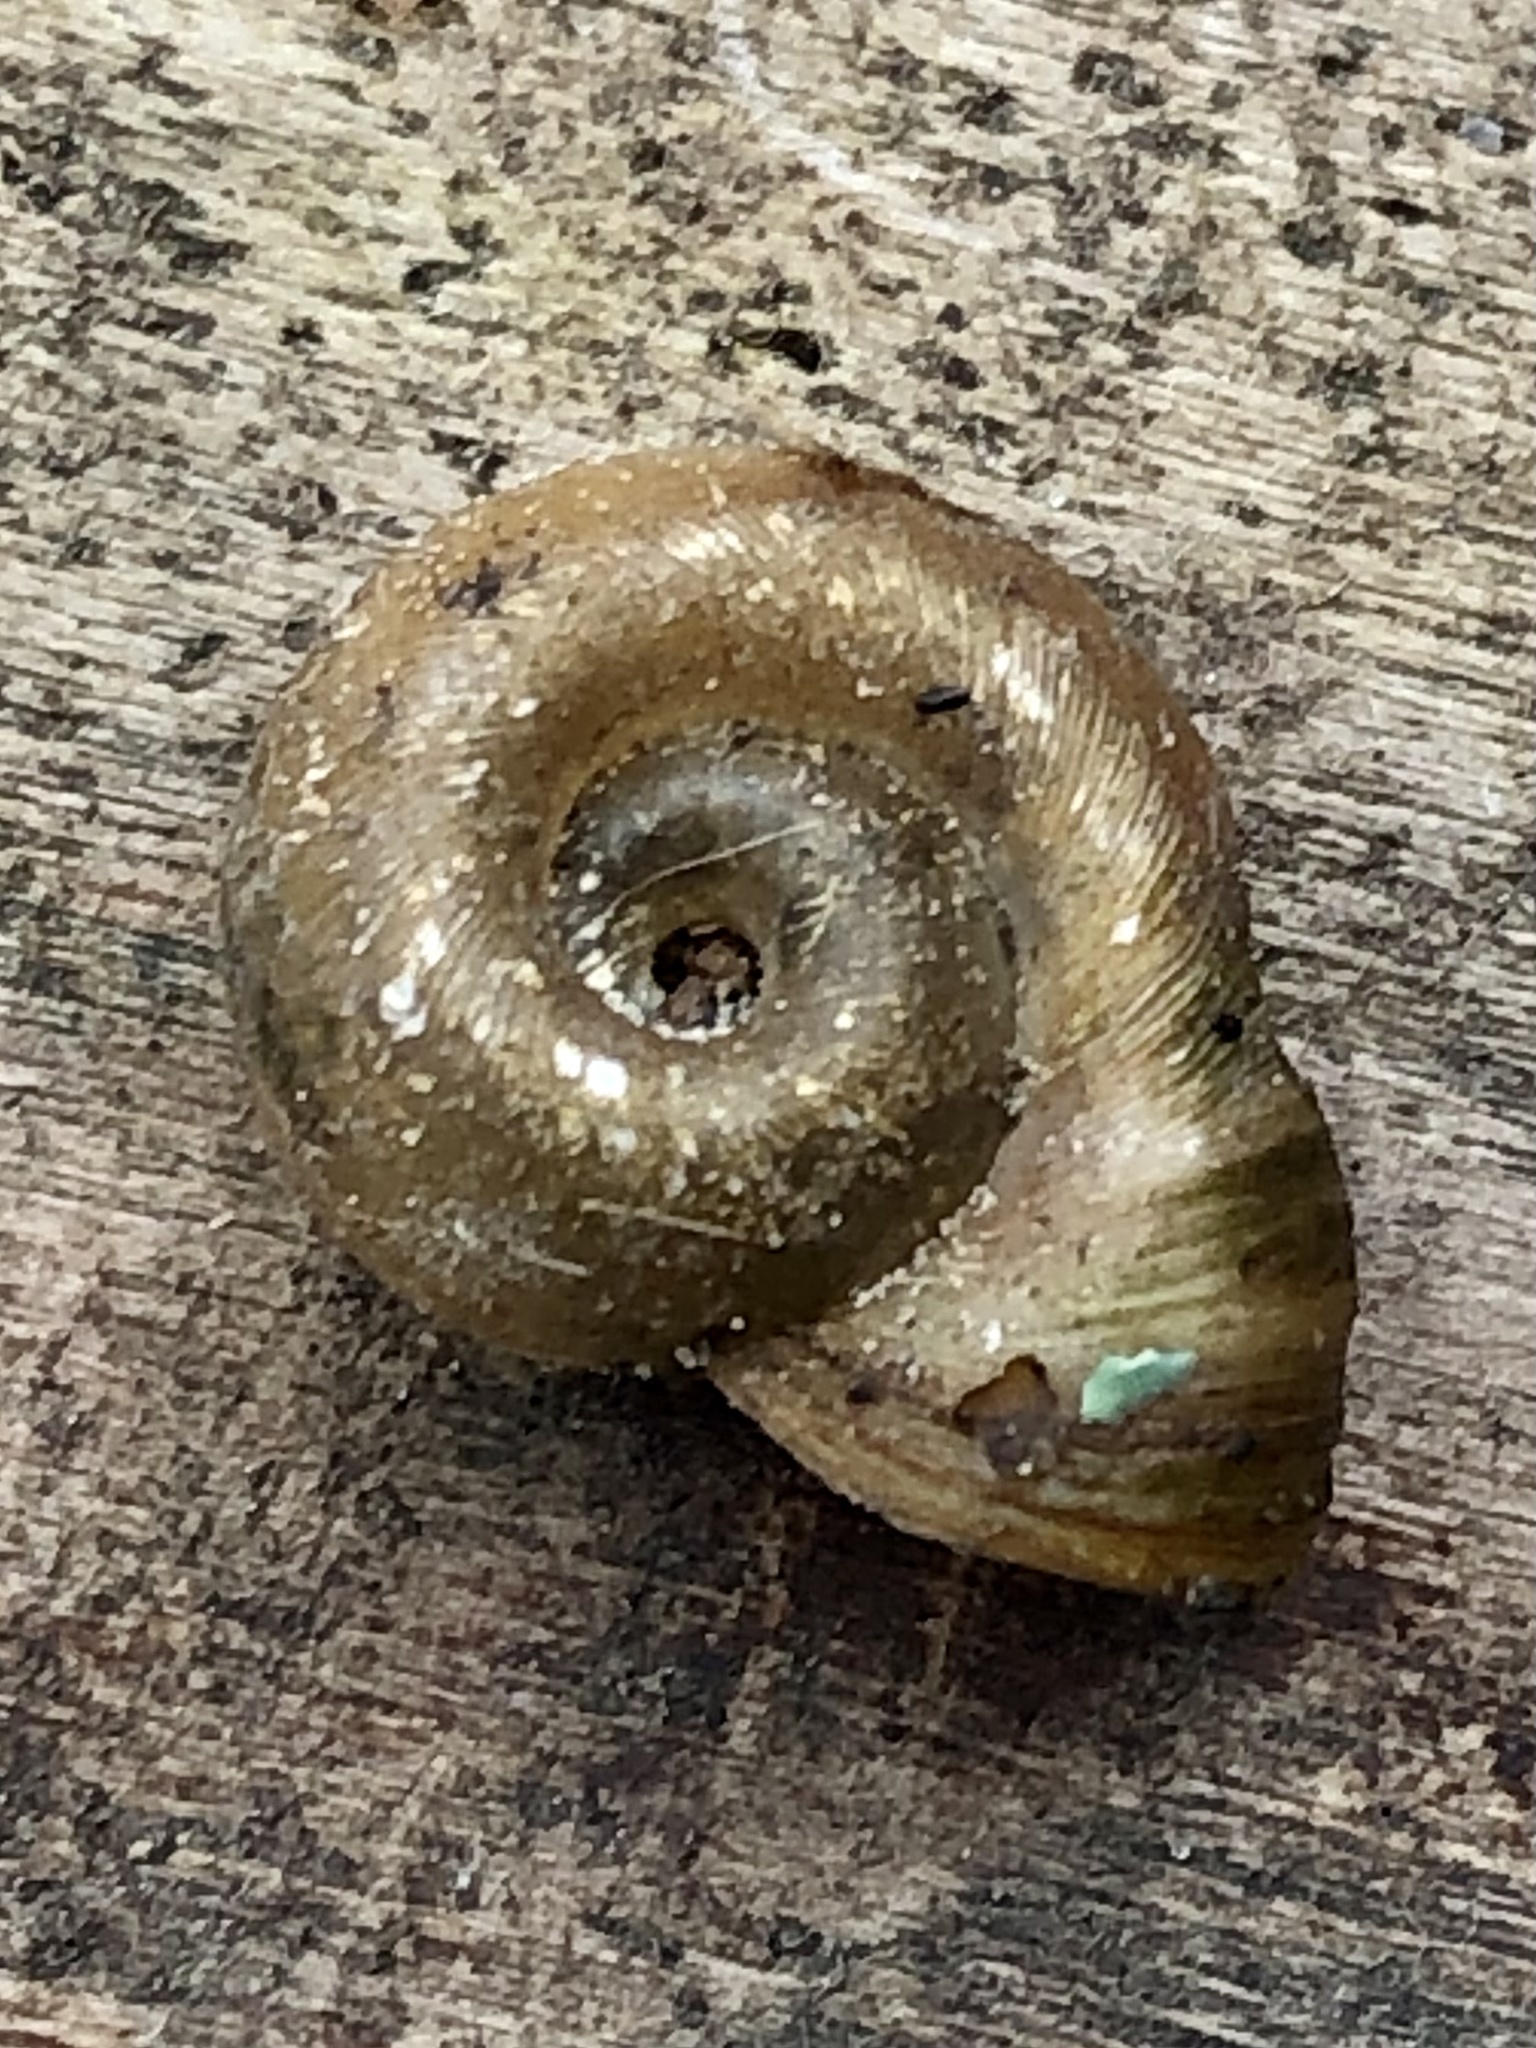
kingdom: Animalia
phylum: Mollusca
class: Gastropoda
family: Planorbidae
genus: Planorbella
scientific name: Planorbella campanulata
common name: Bellmouth ramshorn
